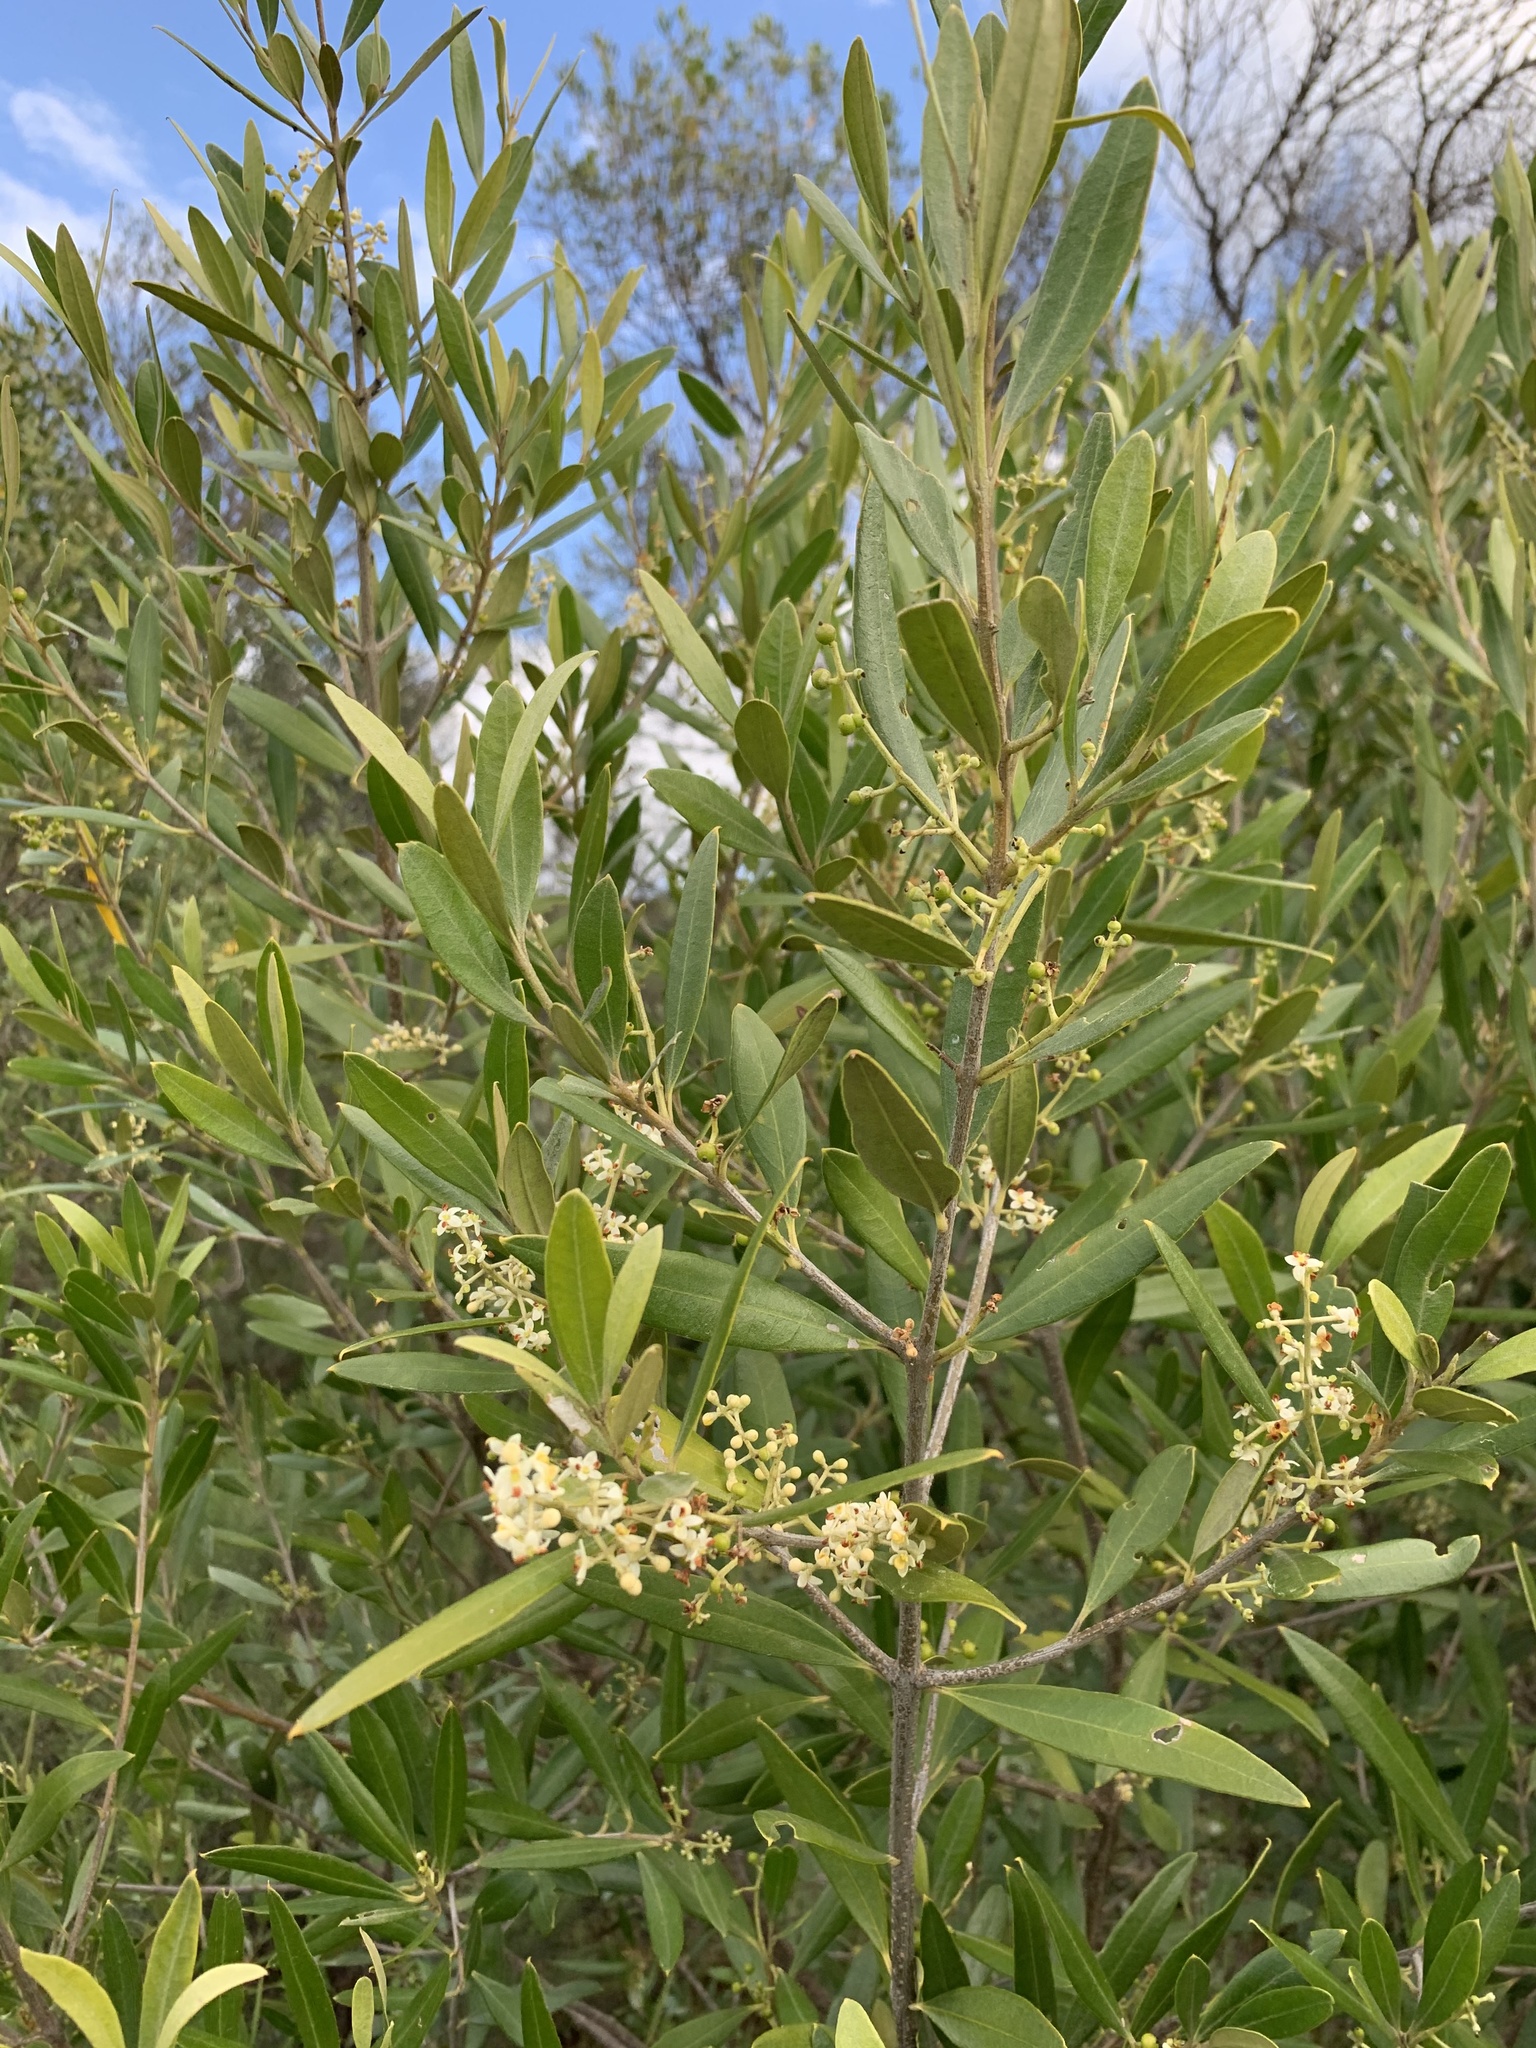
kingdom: Plantae
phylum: Tracheophyta
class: Magnoliopsida
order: Lamiales
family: Oleaceae
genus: Olea
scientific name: Olea europaea
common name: Olive
